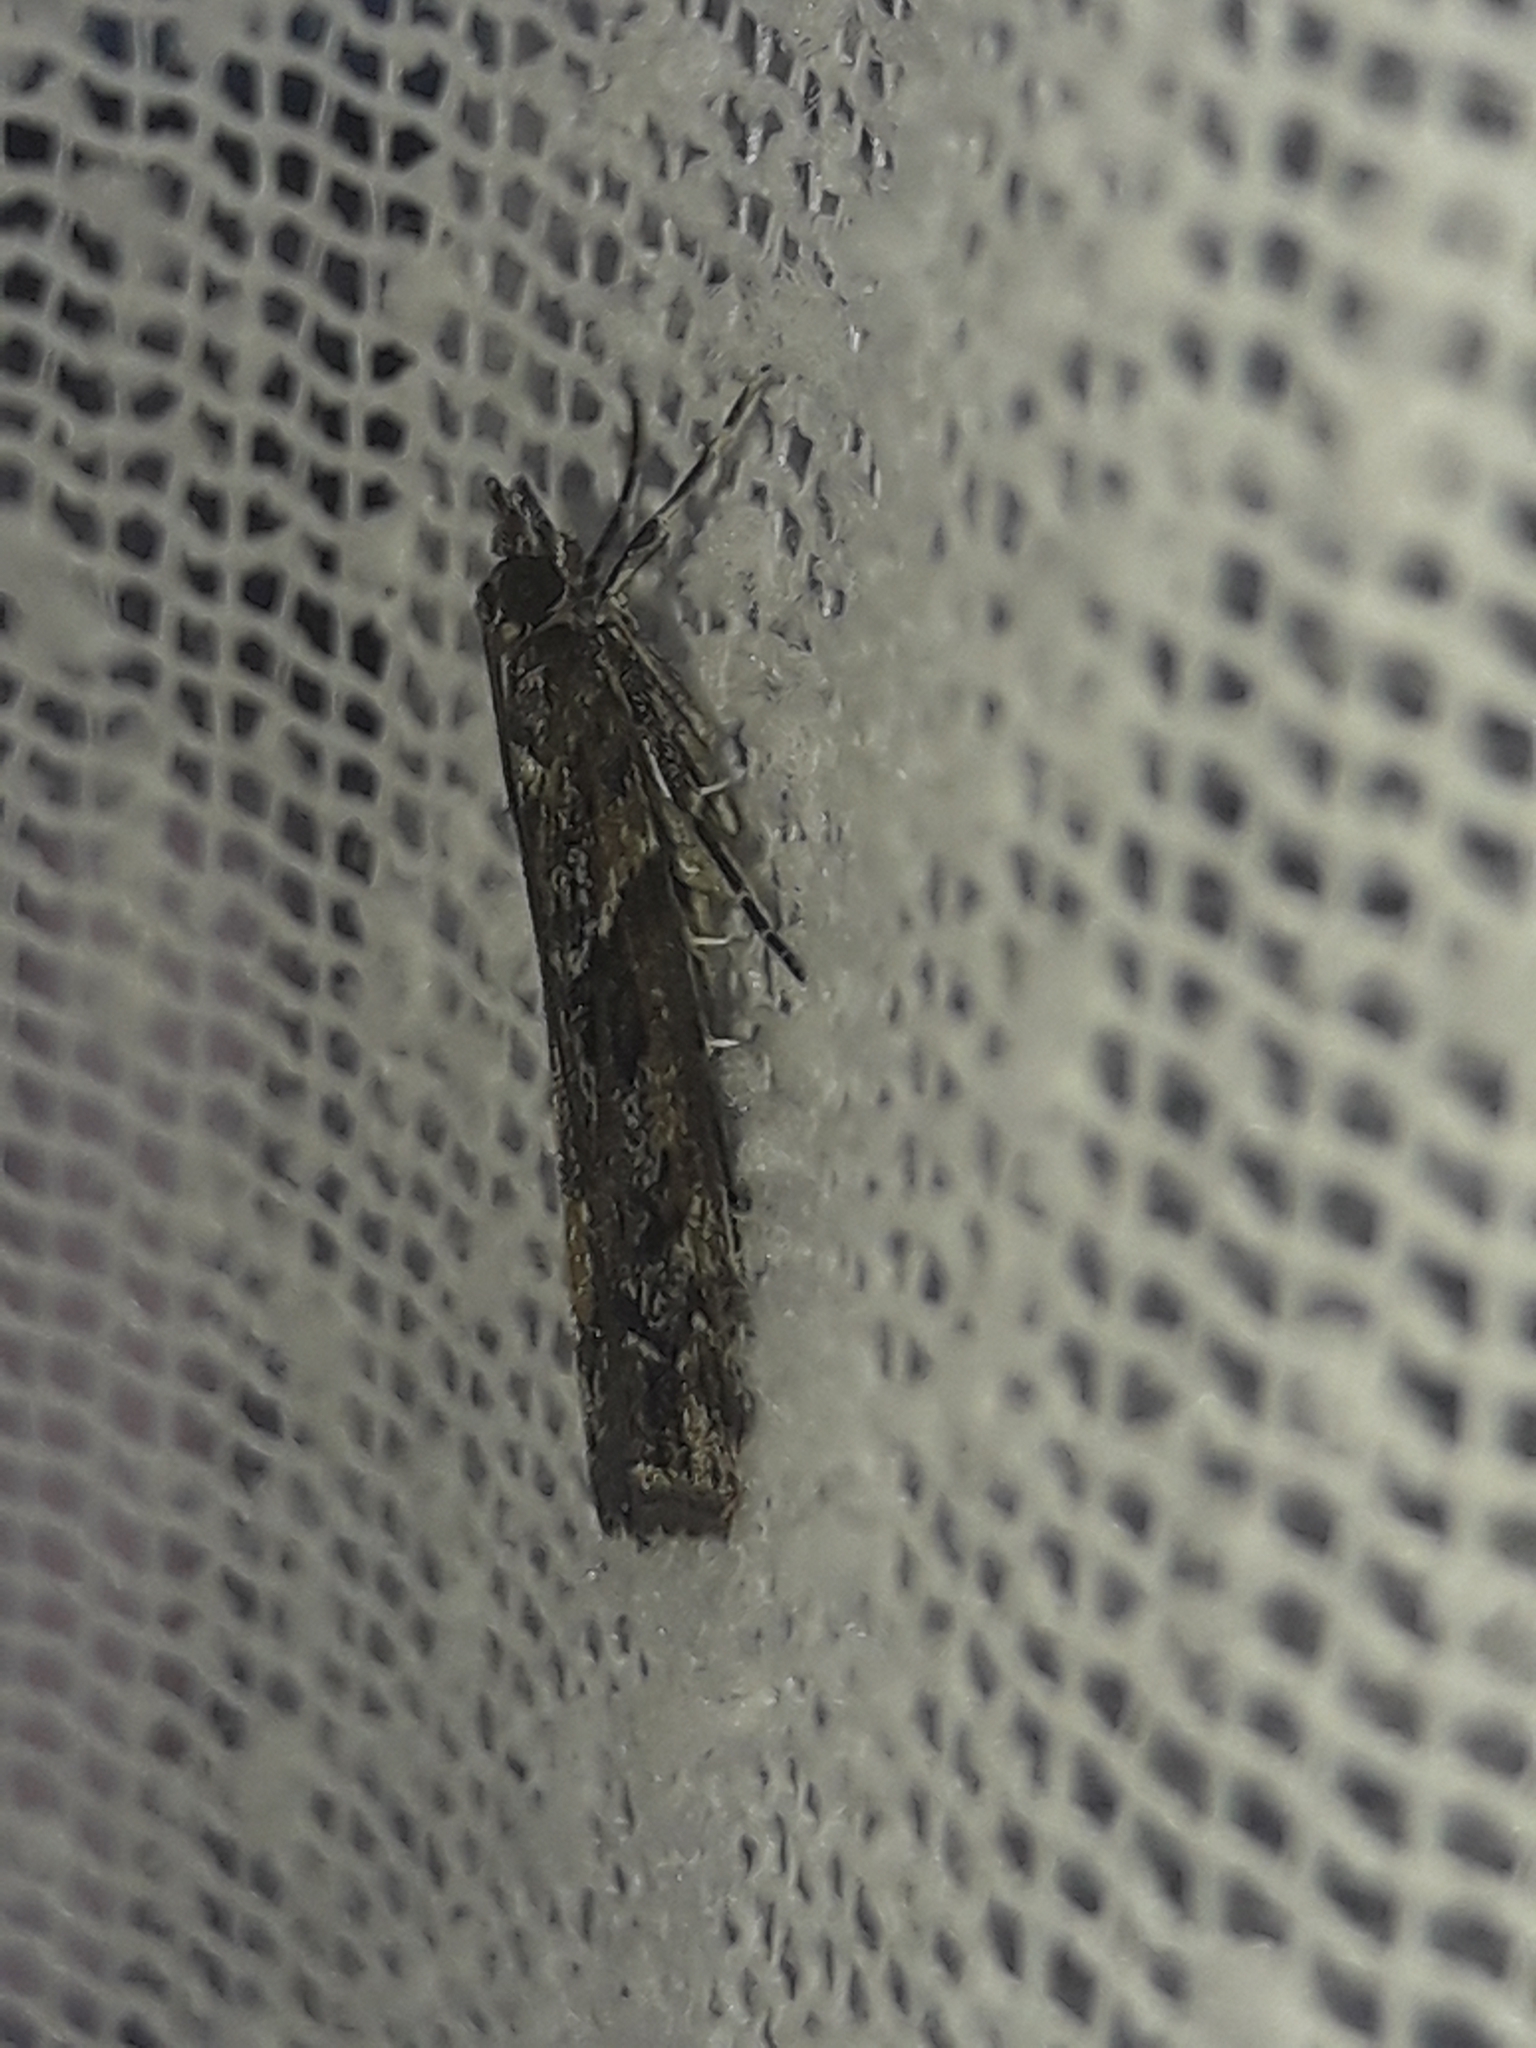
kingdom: Animalia
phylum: Arthropoda
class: Insecta
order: Lepidoptera
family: Crambidae
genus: Eudonia
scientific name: Eudonia submarginalis
